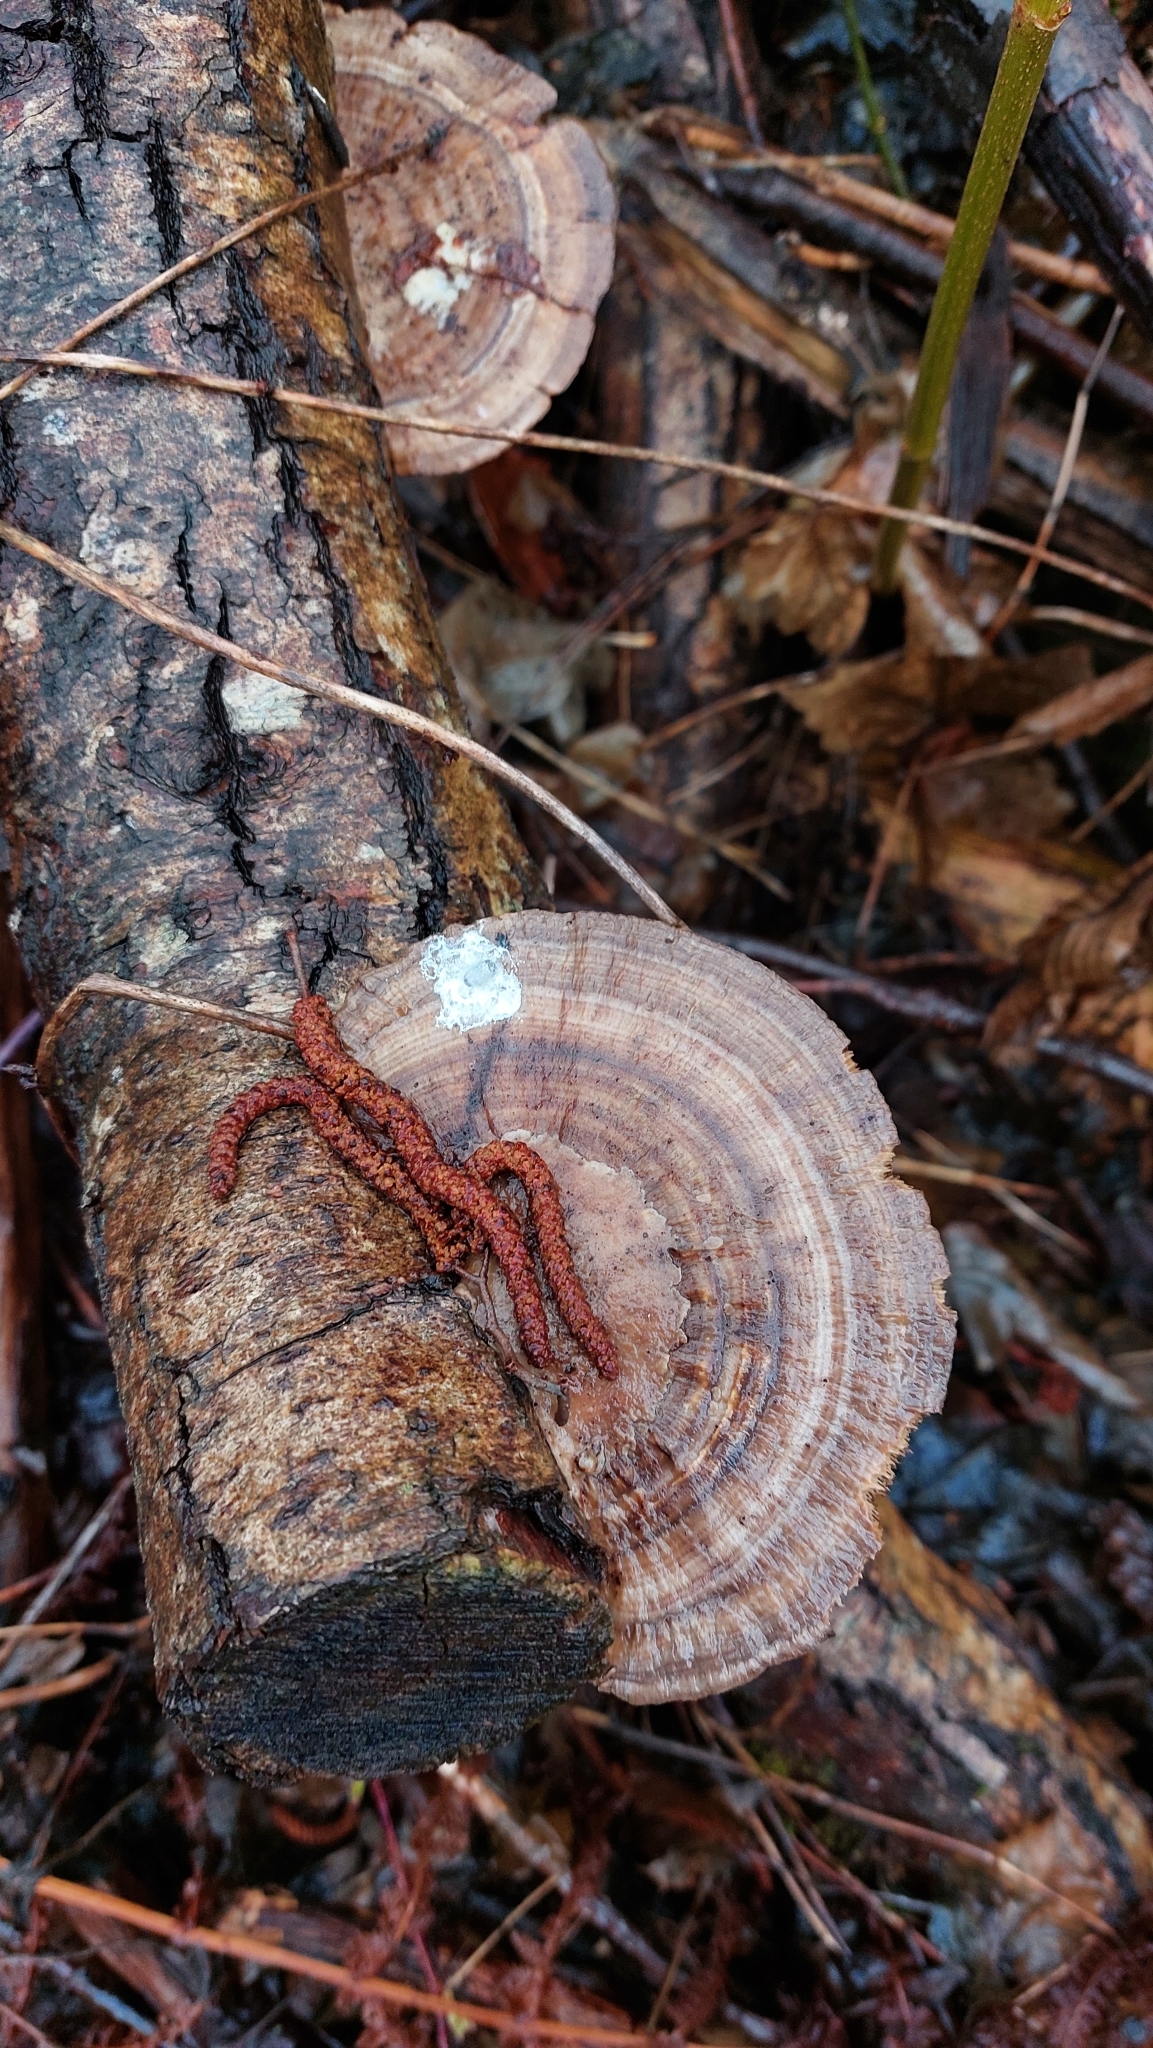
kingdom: Fungi
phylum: Basidiomycota
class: Agaricomycetes
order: Polyporales
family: Polyporaceae
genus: Daedaleopsis
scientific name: Daedaleopsis confragosa
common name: Blushing bracket
